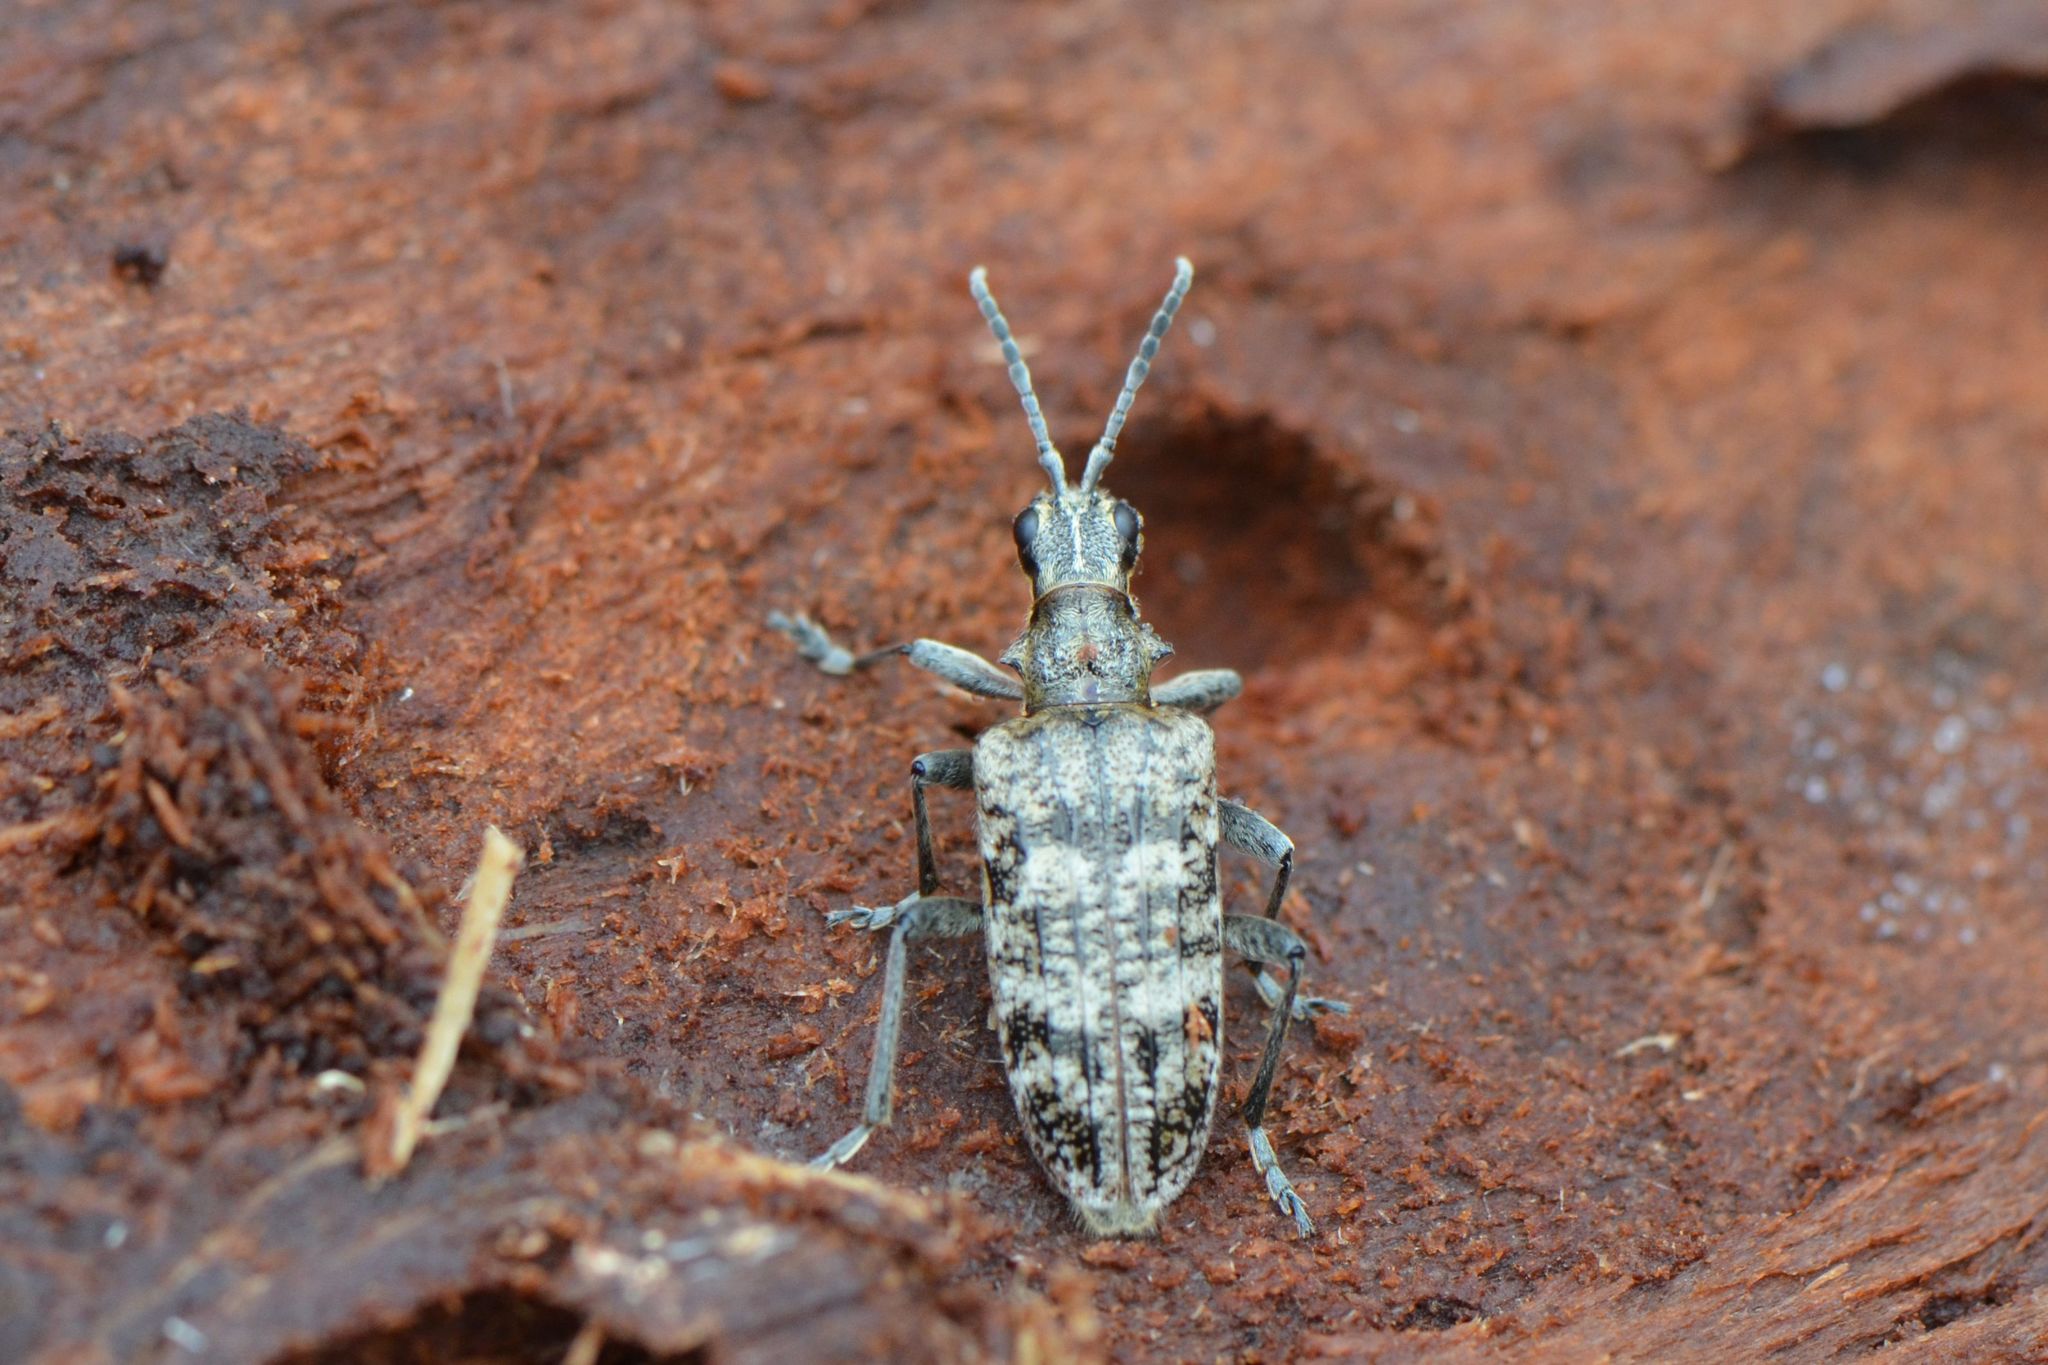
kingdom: Animalia
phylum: Arthropoda
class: Insecta
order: Coleoptera
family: Cerambycidae
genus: Rhagium
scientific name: Rhagium inquisitor
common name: Ribbed pine borer
